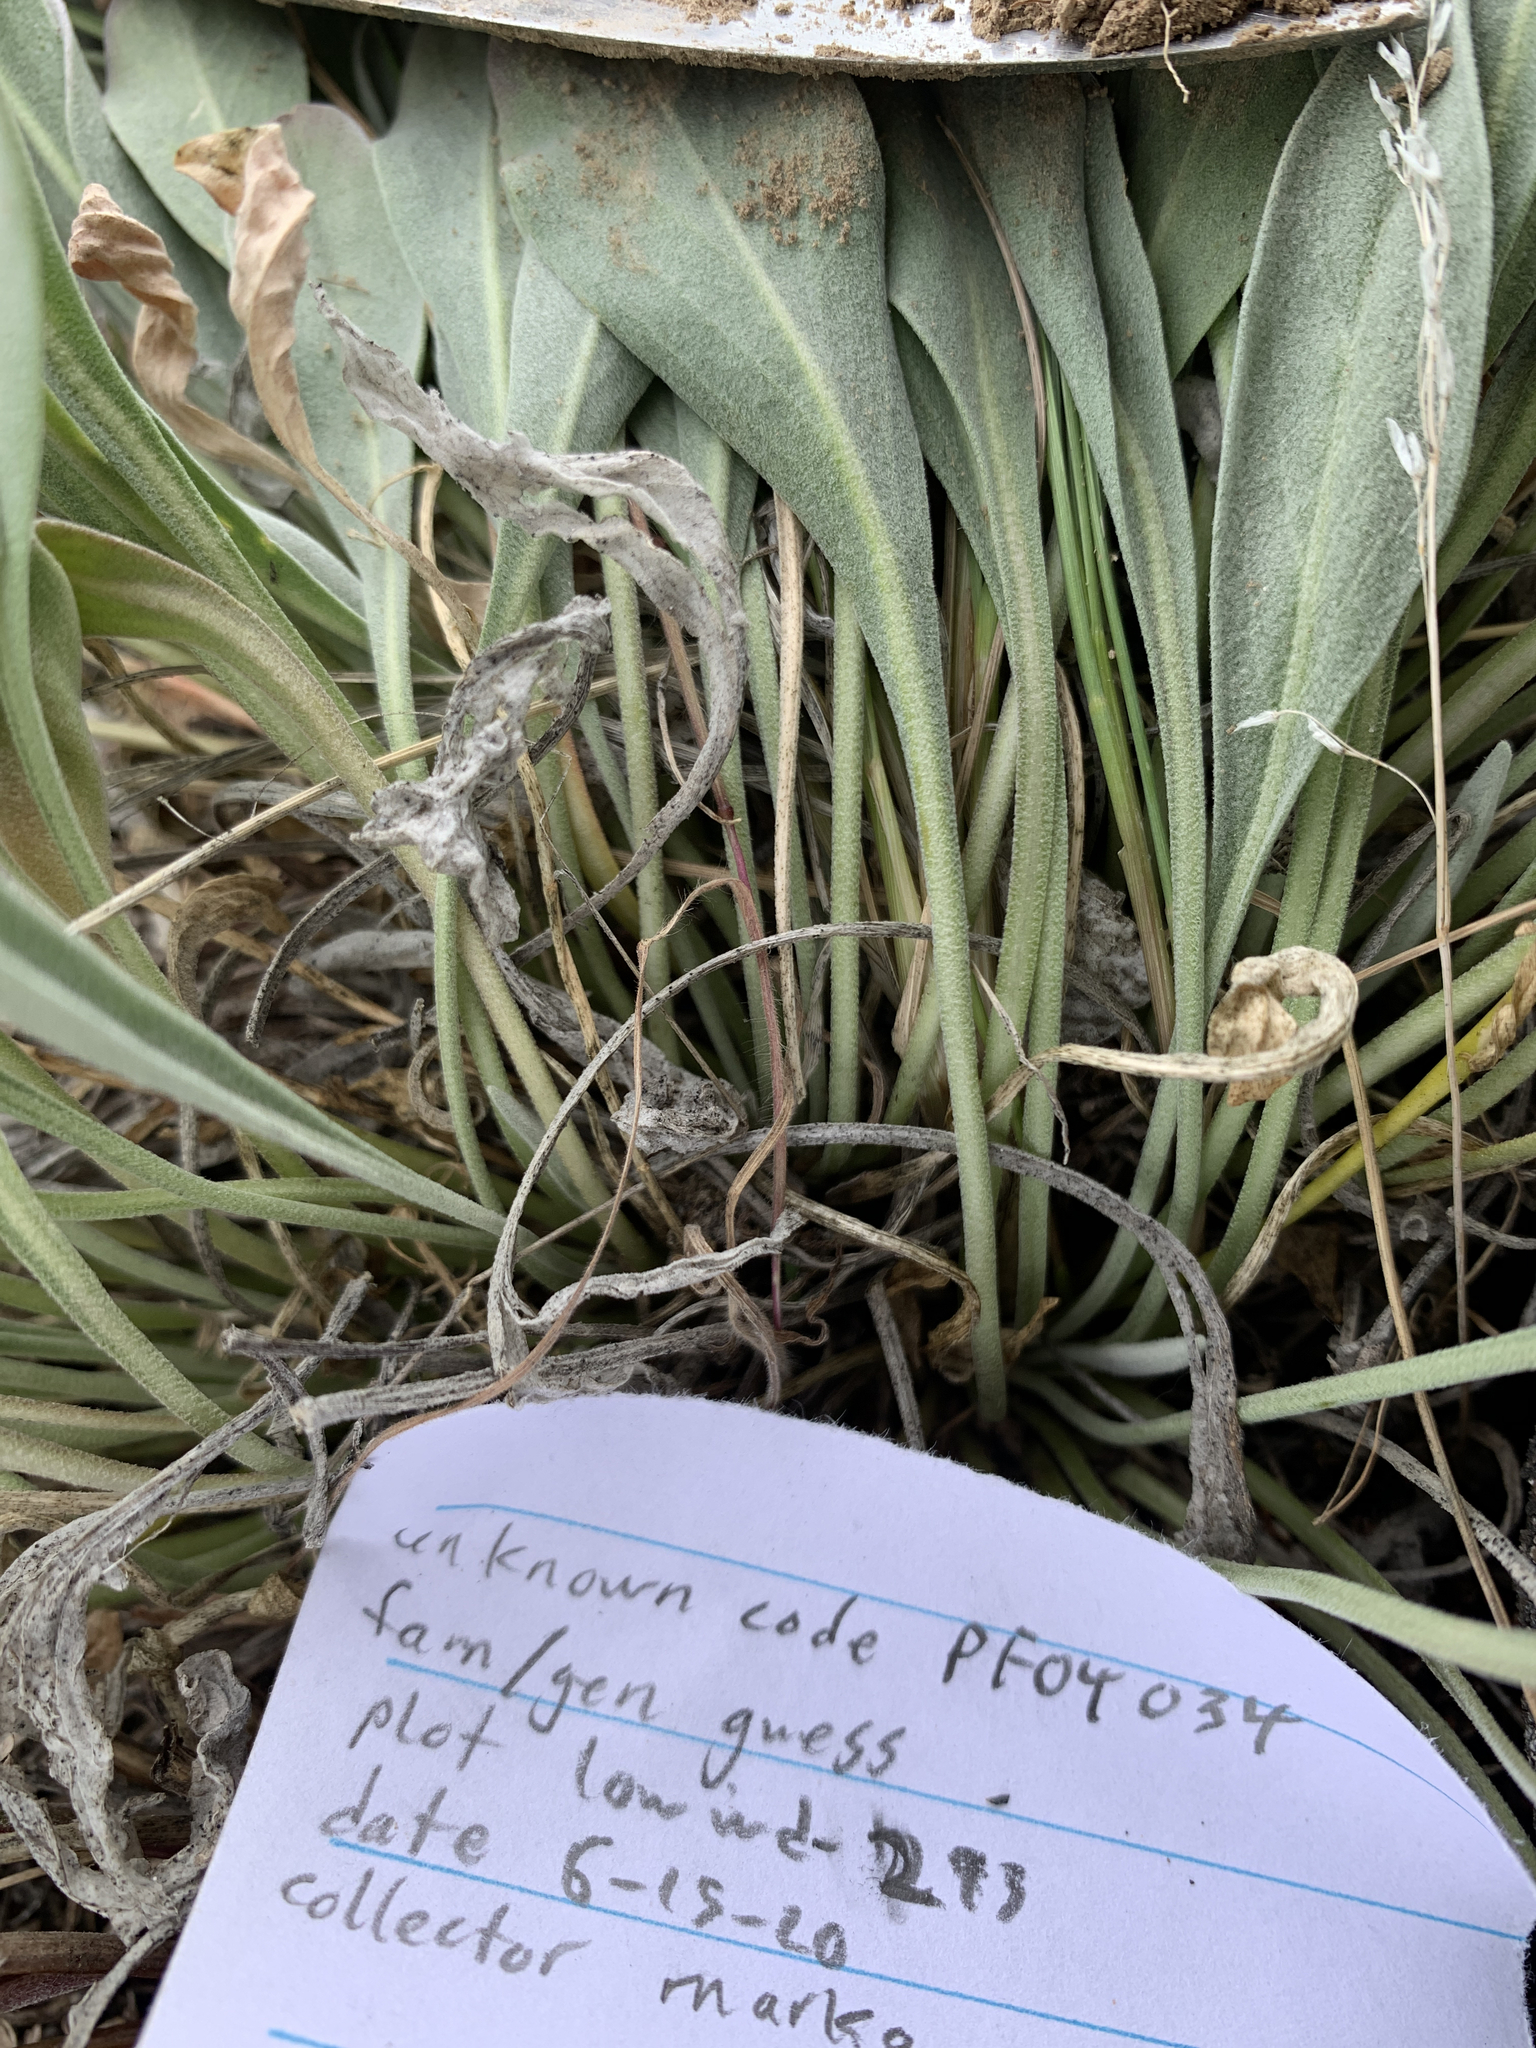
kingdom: Plantae
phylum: Tracheophyta
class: Magnoliopsida
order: Brassicales
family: Brassicaceae
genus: Phoenicaulis
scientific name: Phoenicaulis cheiranthoides
